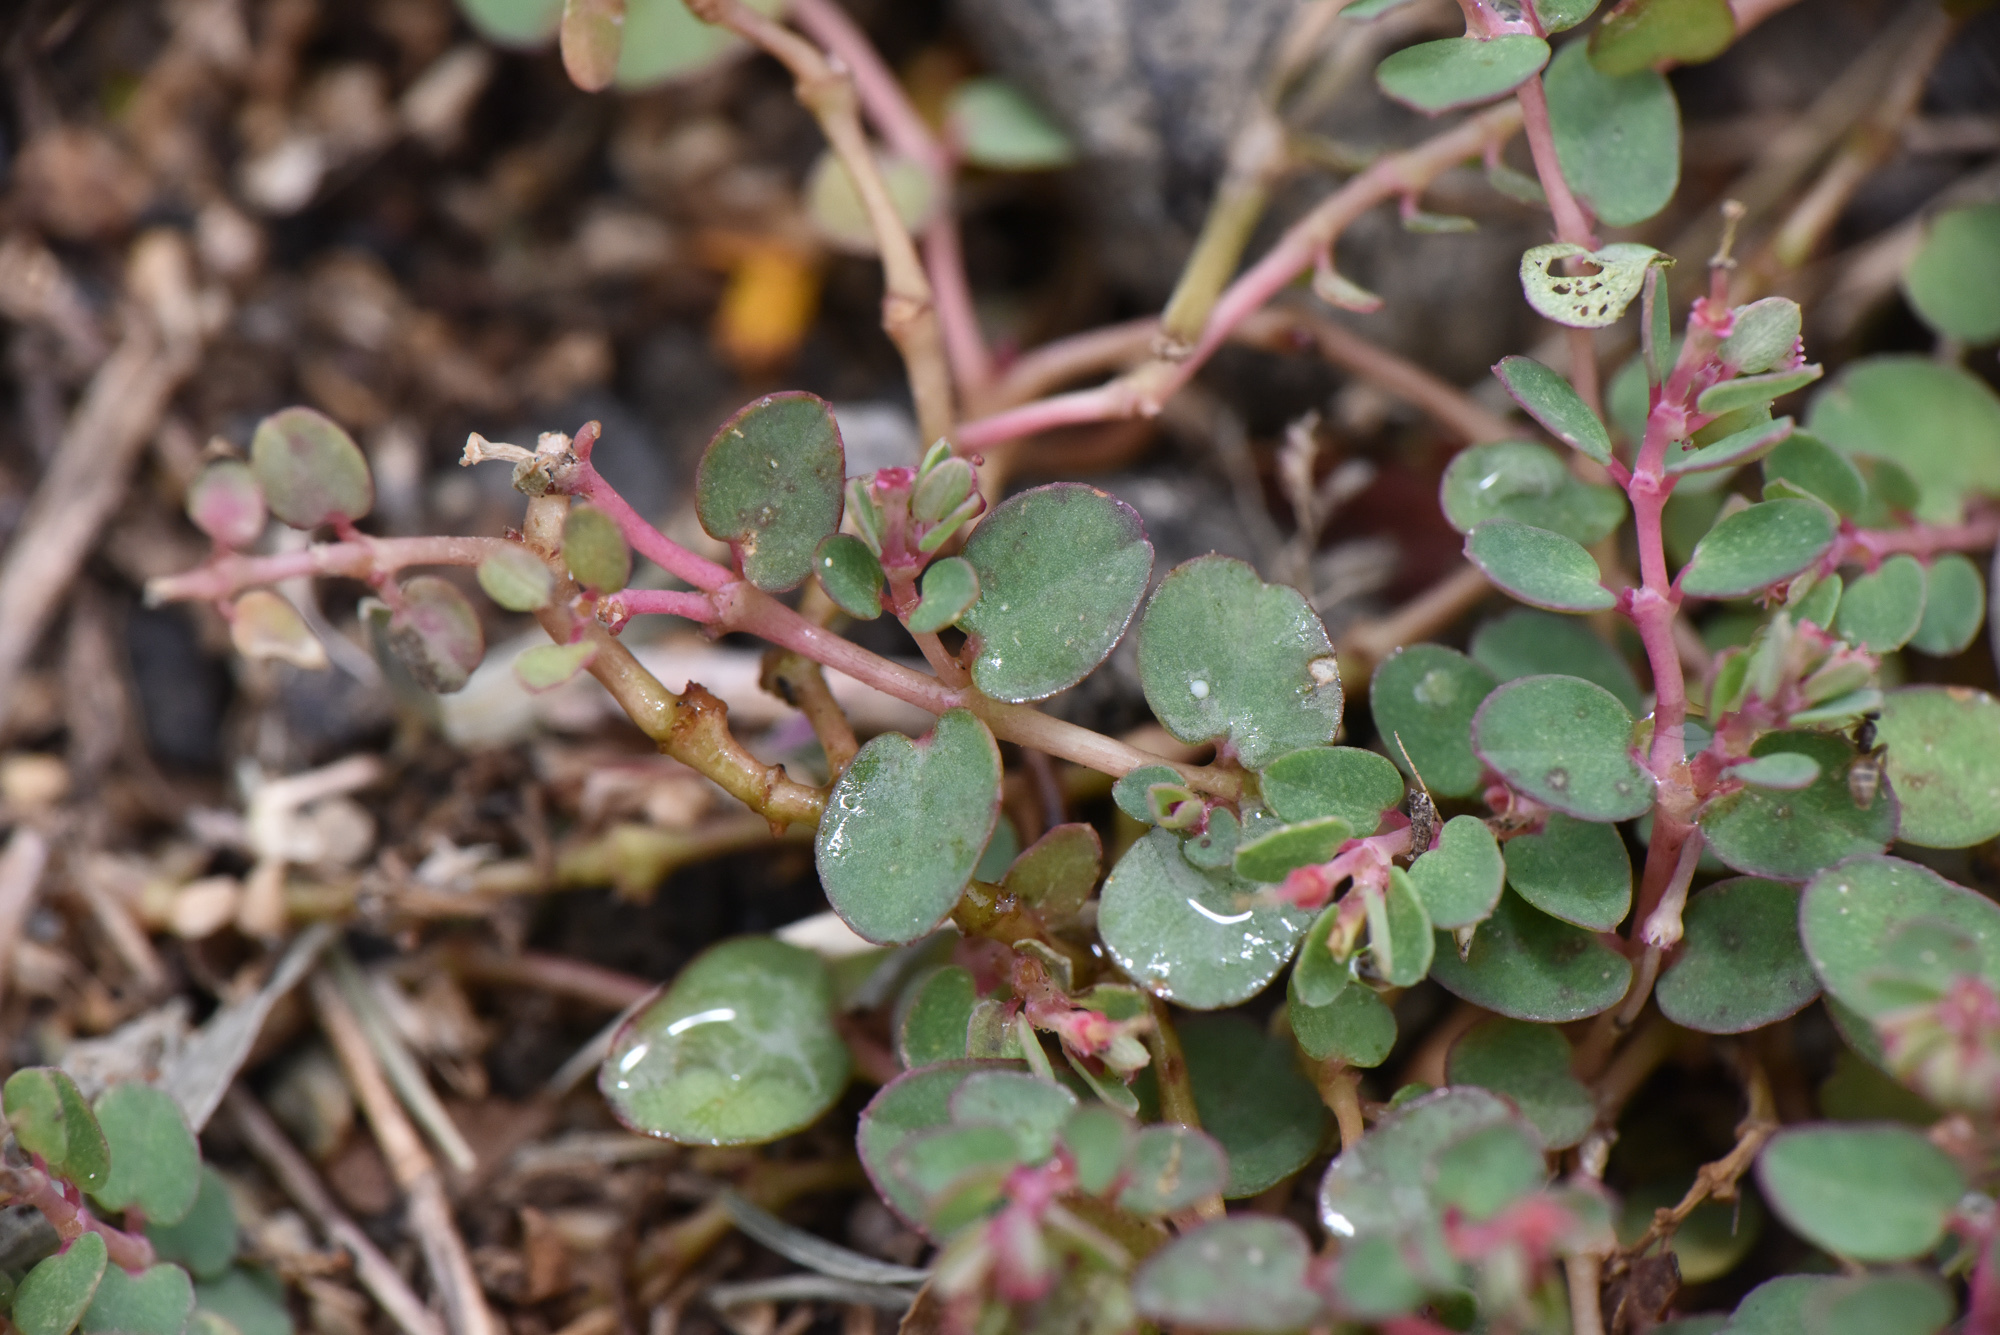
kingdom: Plantae
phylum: Tracheophyta
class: Magnoliopsida
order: Malpighiales
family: Euphorbiaceae
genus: Euphorbia
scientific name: Euphorbia makinoi
